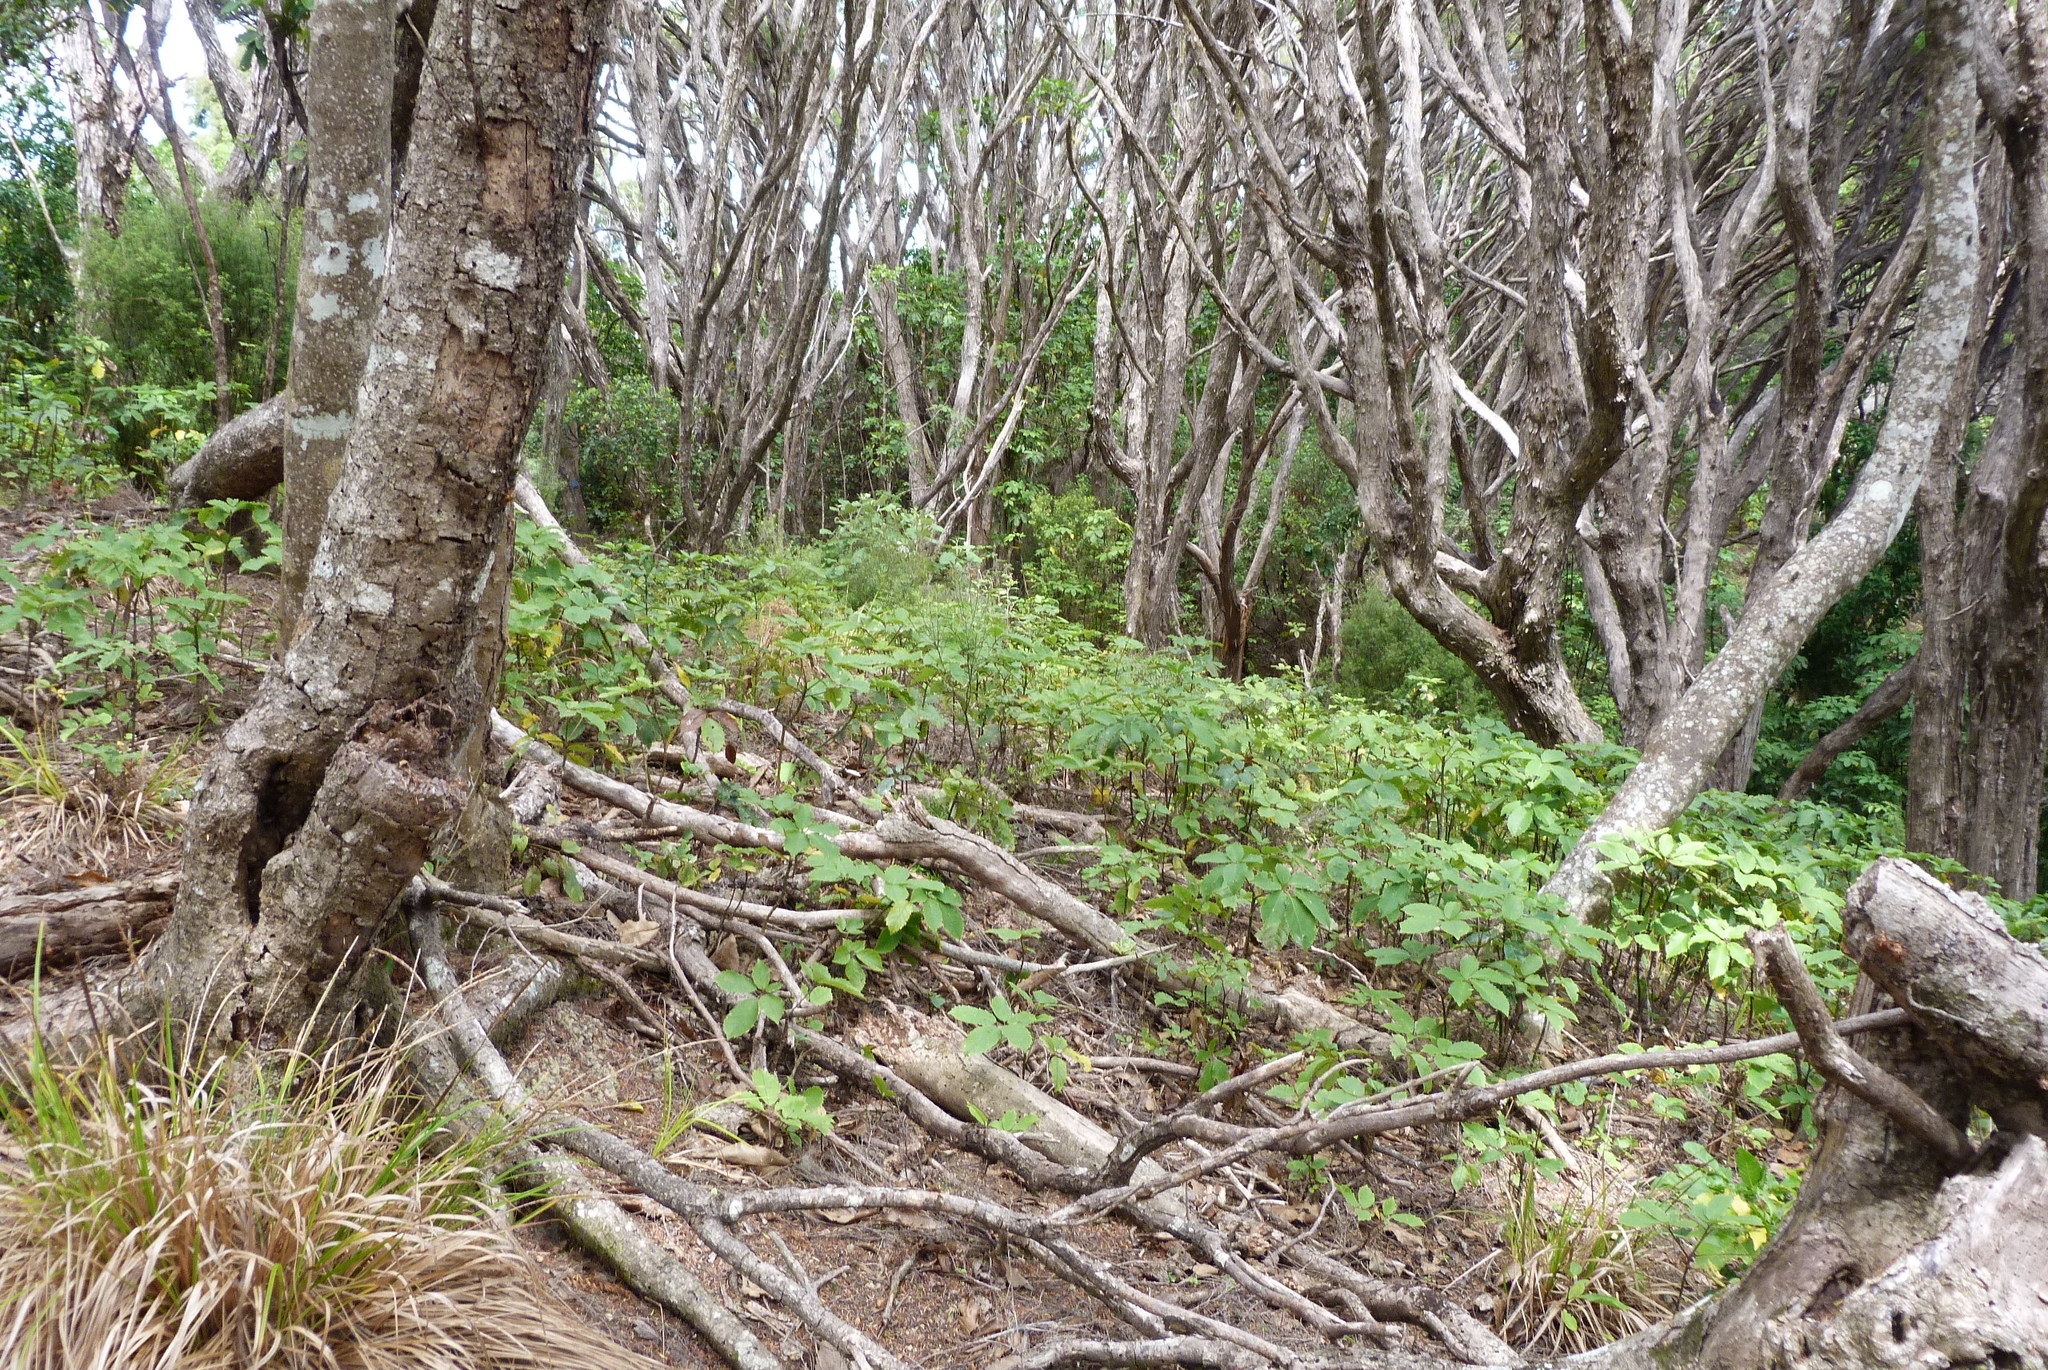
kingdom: Plantae
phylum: Tracheophyta
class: Magnoliopsida
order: Apiales
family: Araliaceae
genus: Neopanax
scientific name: Neopanax arboreus
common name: Five-fingers
